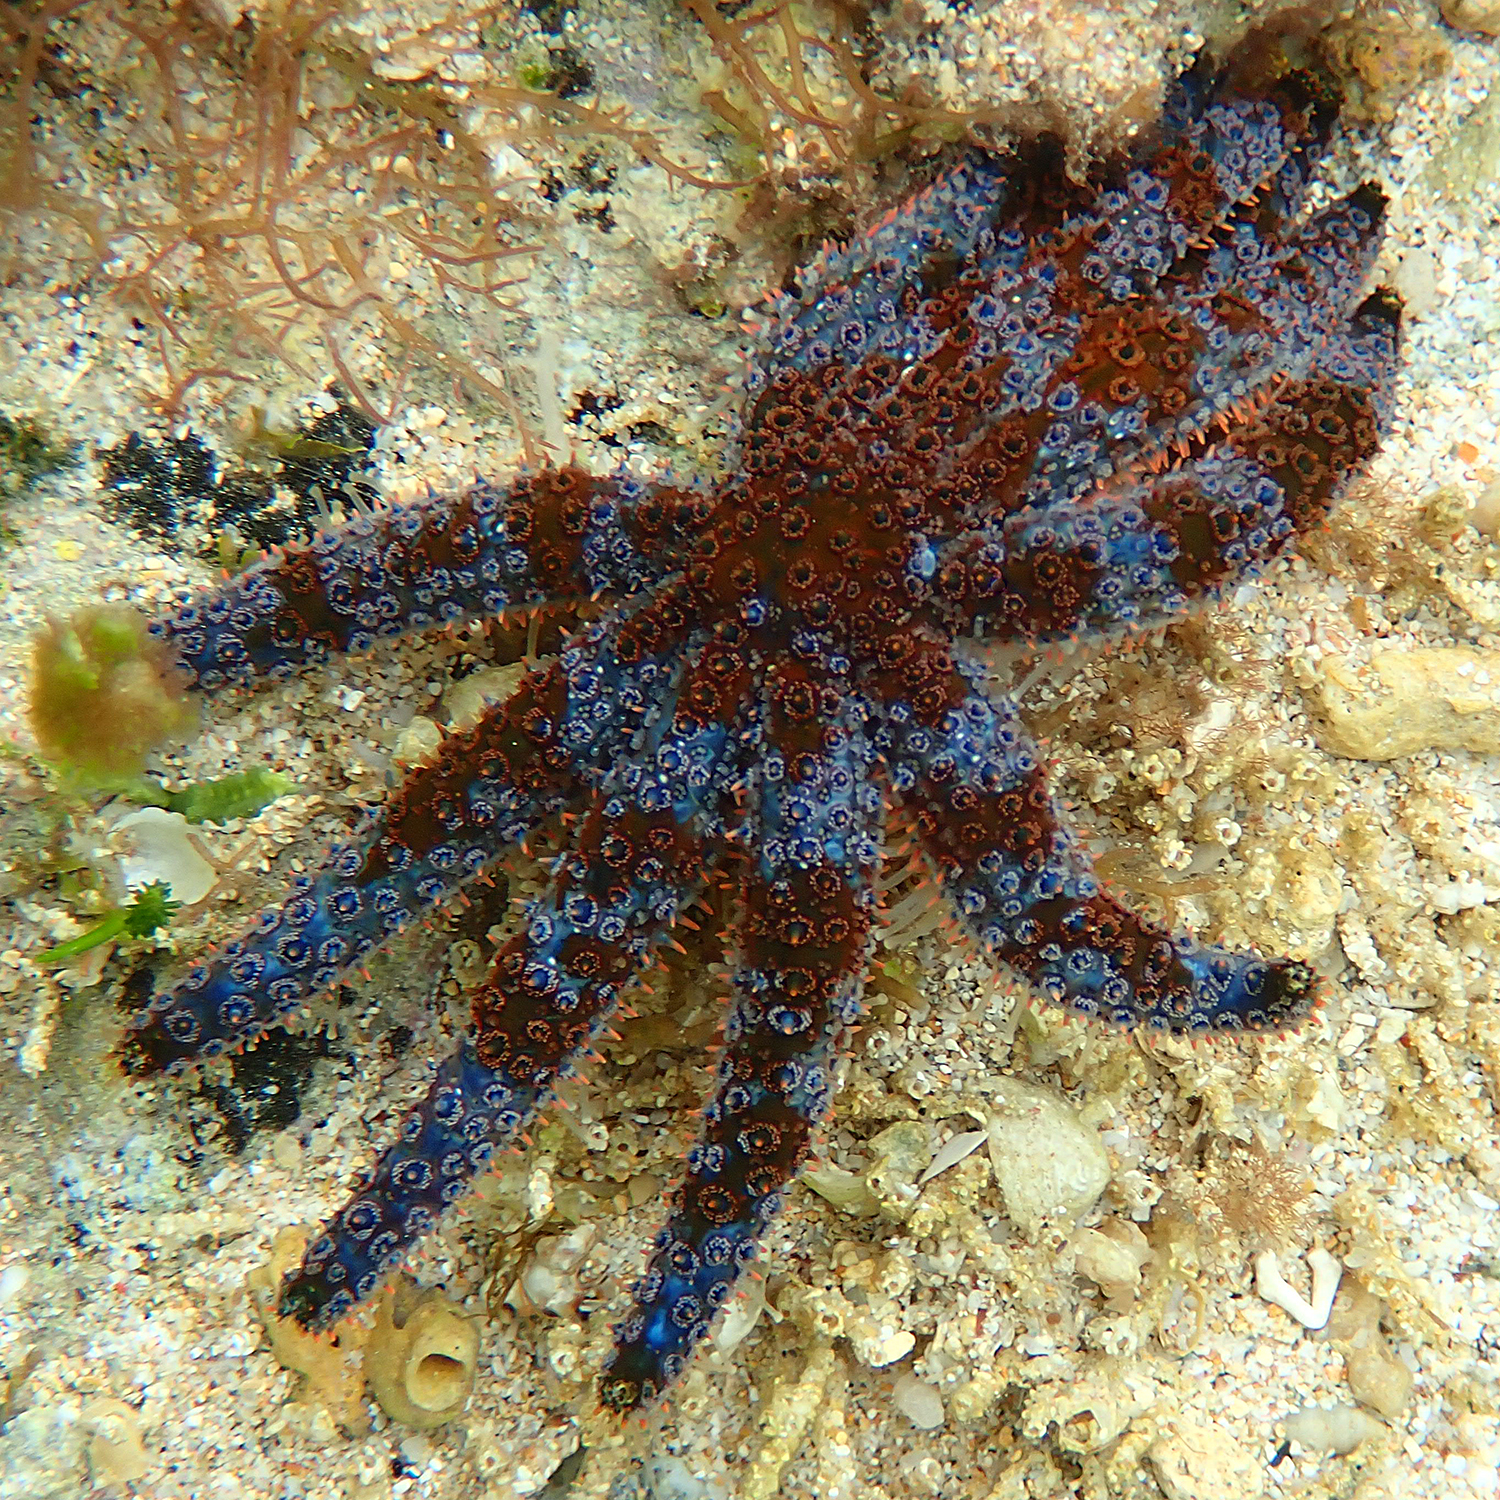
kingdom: Animalia
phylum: Echinodermata
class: Asteroidea
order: Forcipulatida
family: Asteriidae
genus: Coscinasterias
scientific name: Coscinasterias muricata
